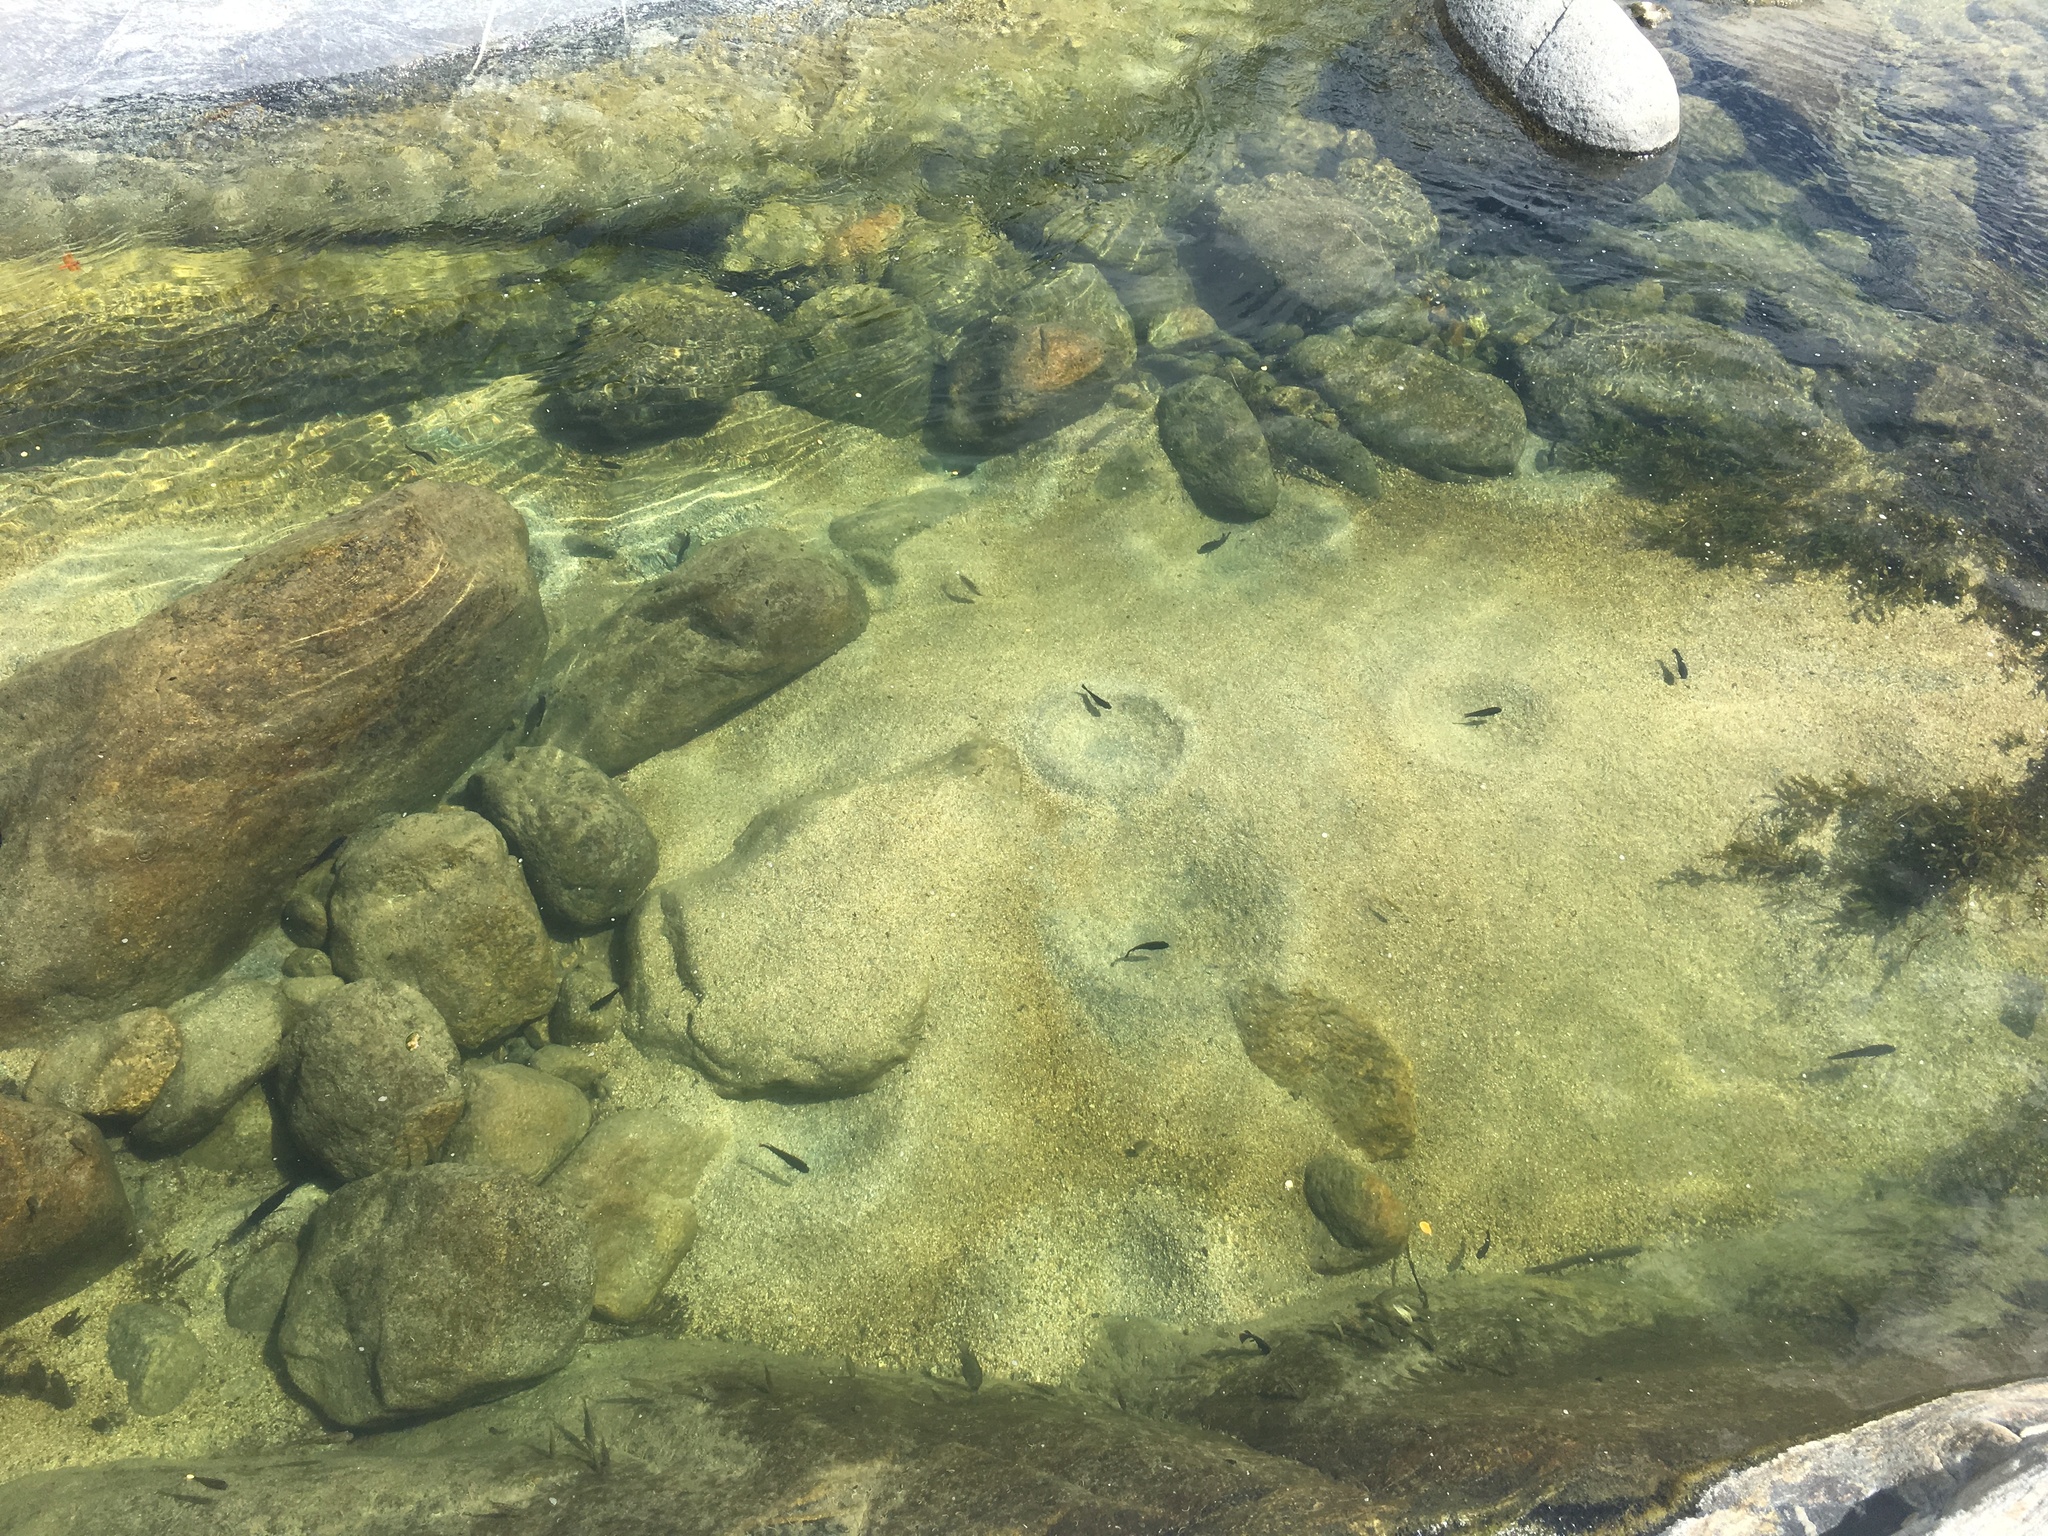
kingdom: Animalia
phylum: Chordata
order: Perciformes
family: Cichlidae
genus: Oreochromis
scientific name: Oreochromis mossambicus
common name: Mozambique tilapia
